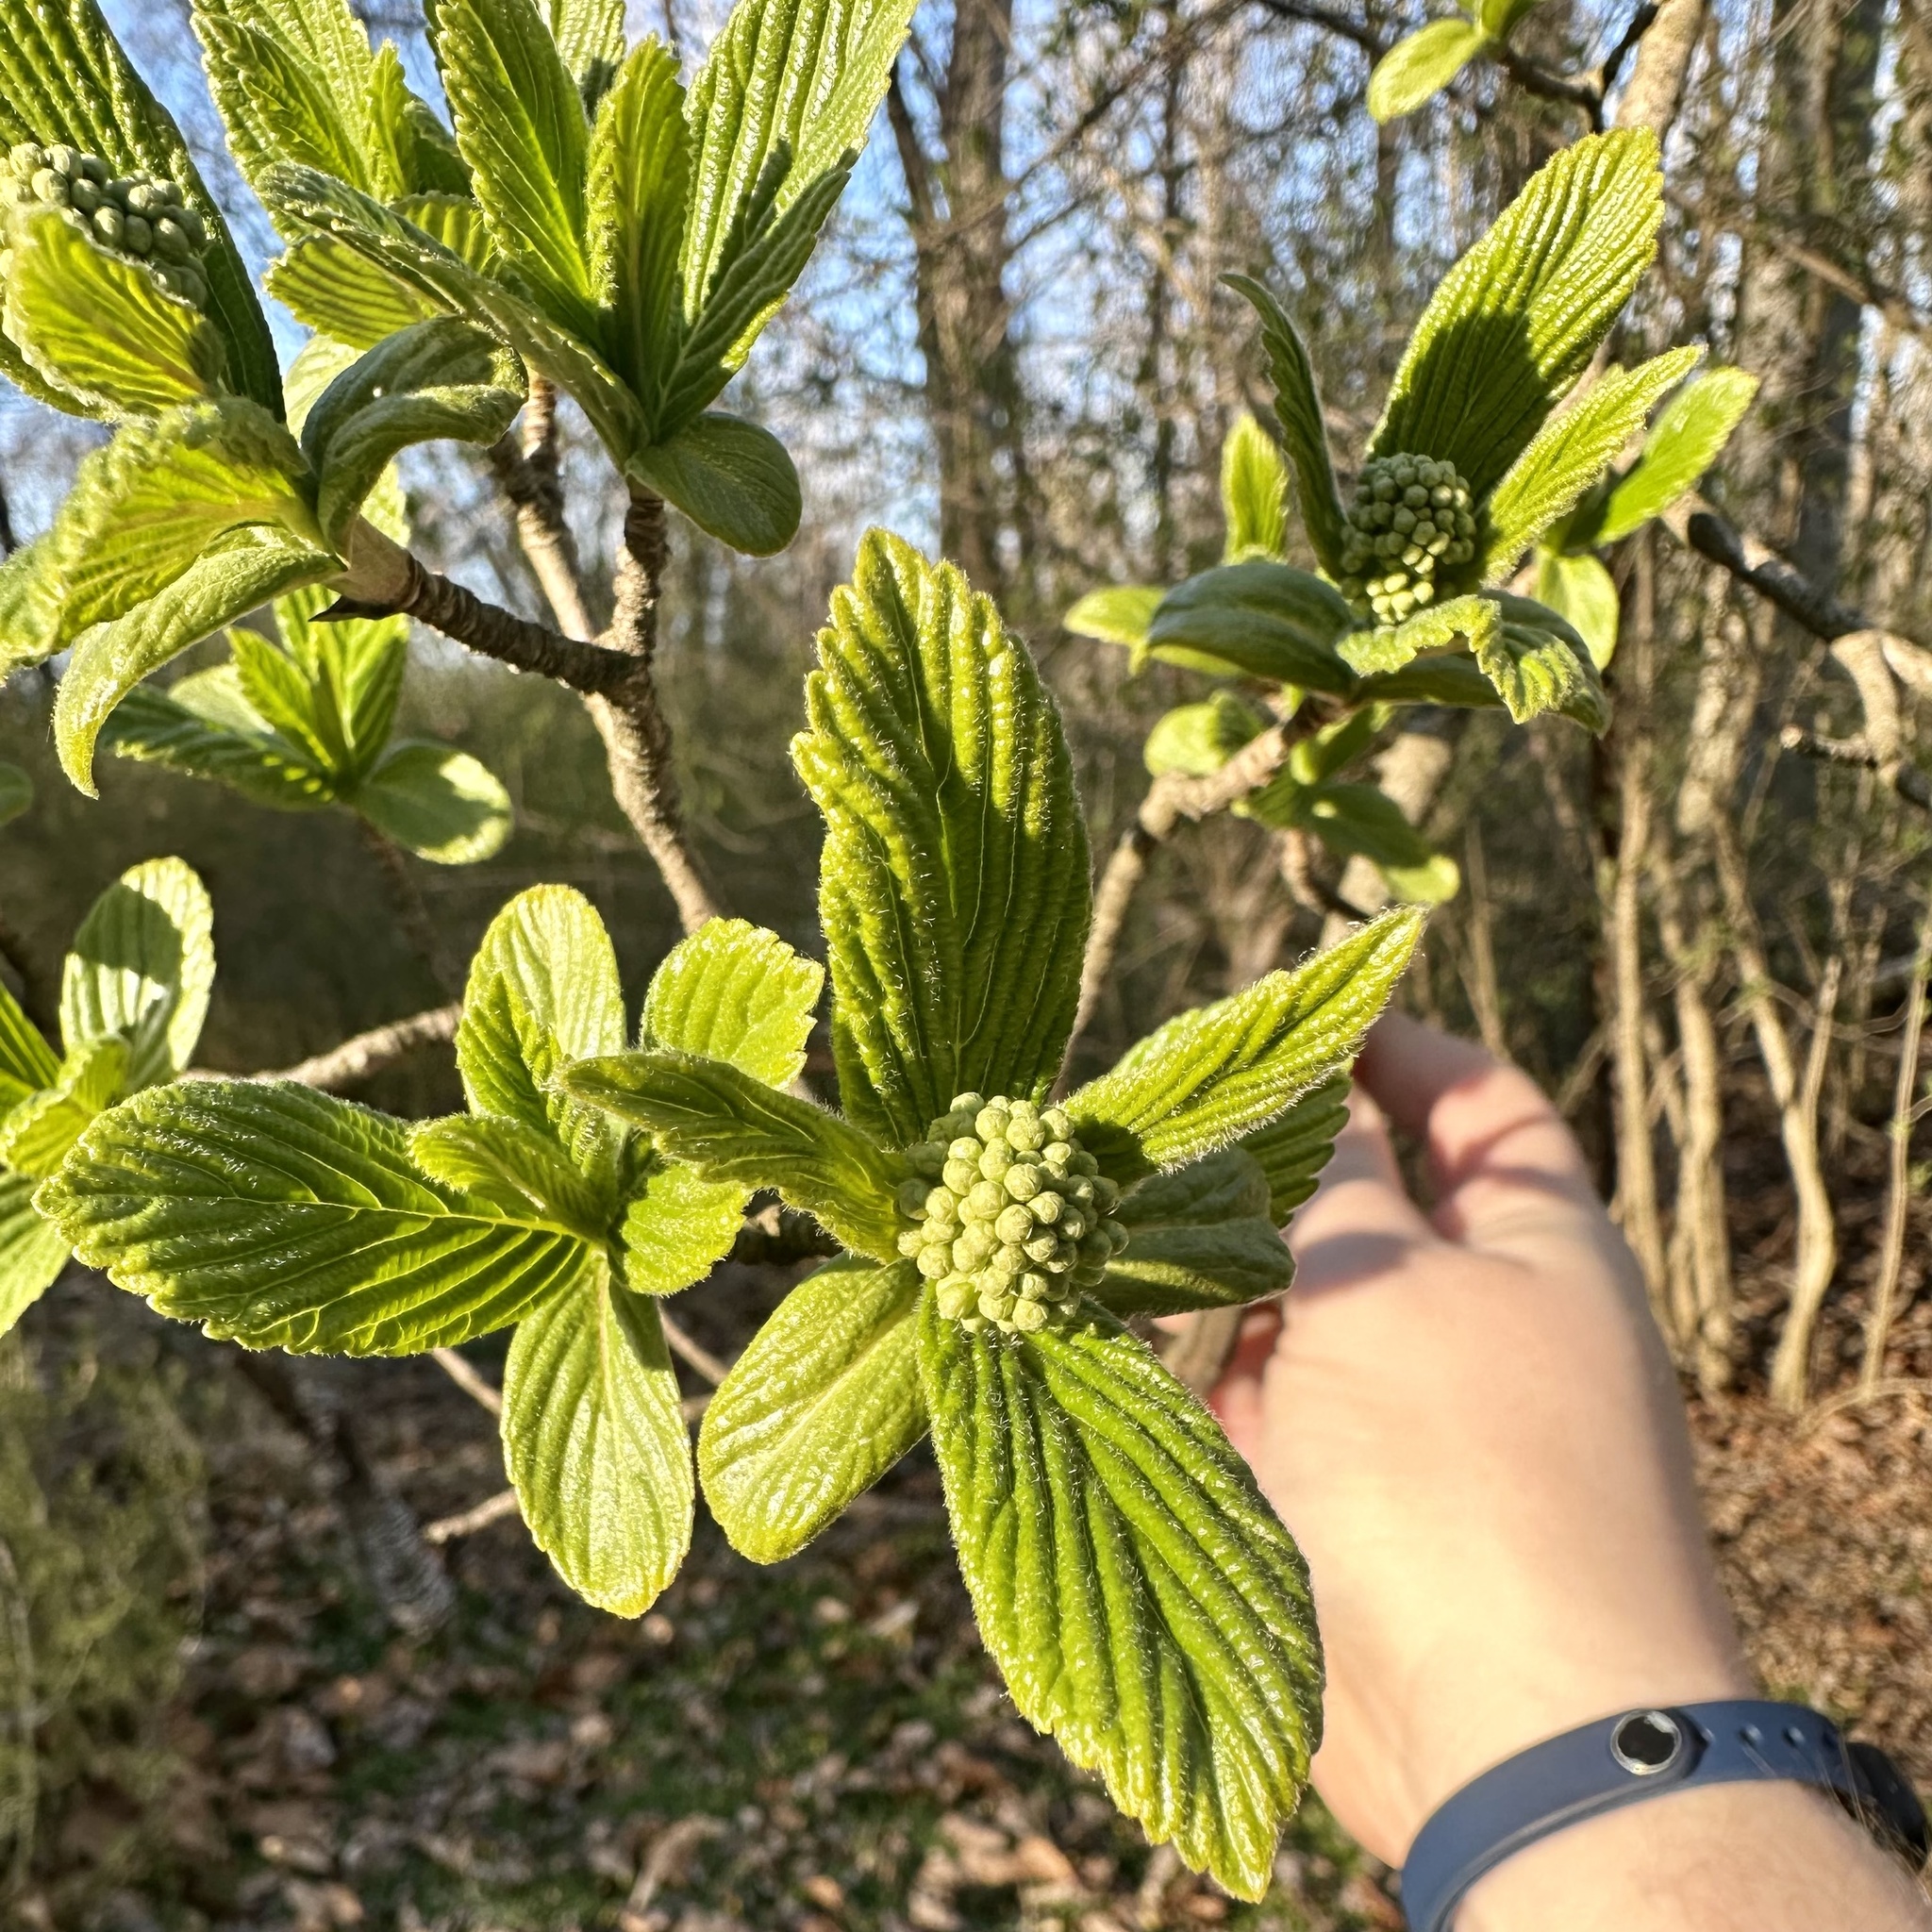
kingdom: Plantae
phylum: Tracheophyta
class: Magnoliopsida
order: Dipsacales
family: Viburnaceae
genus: Viburnum
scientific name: Viburnum sieboldii
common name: Siebold's arrowwood
